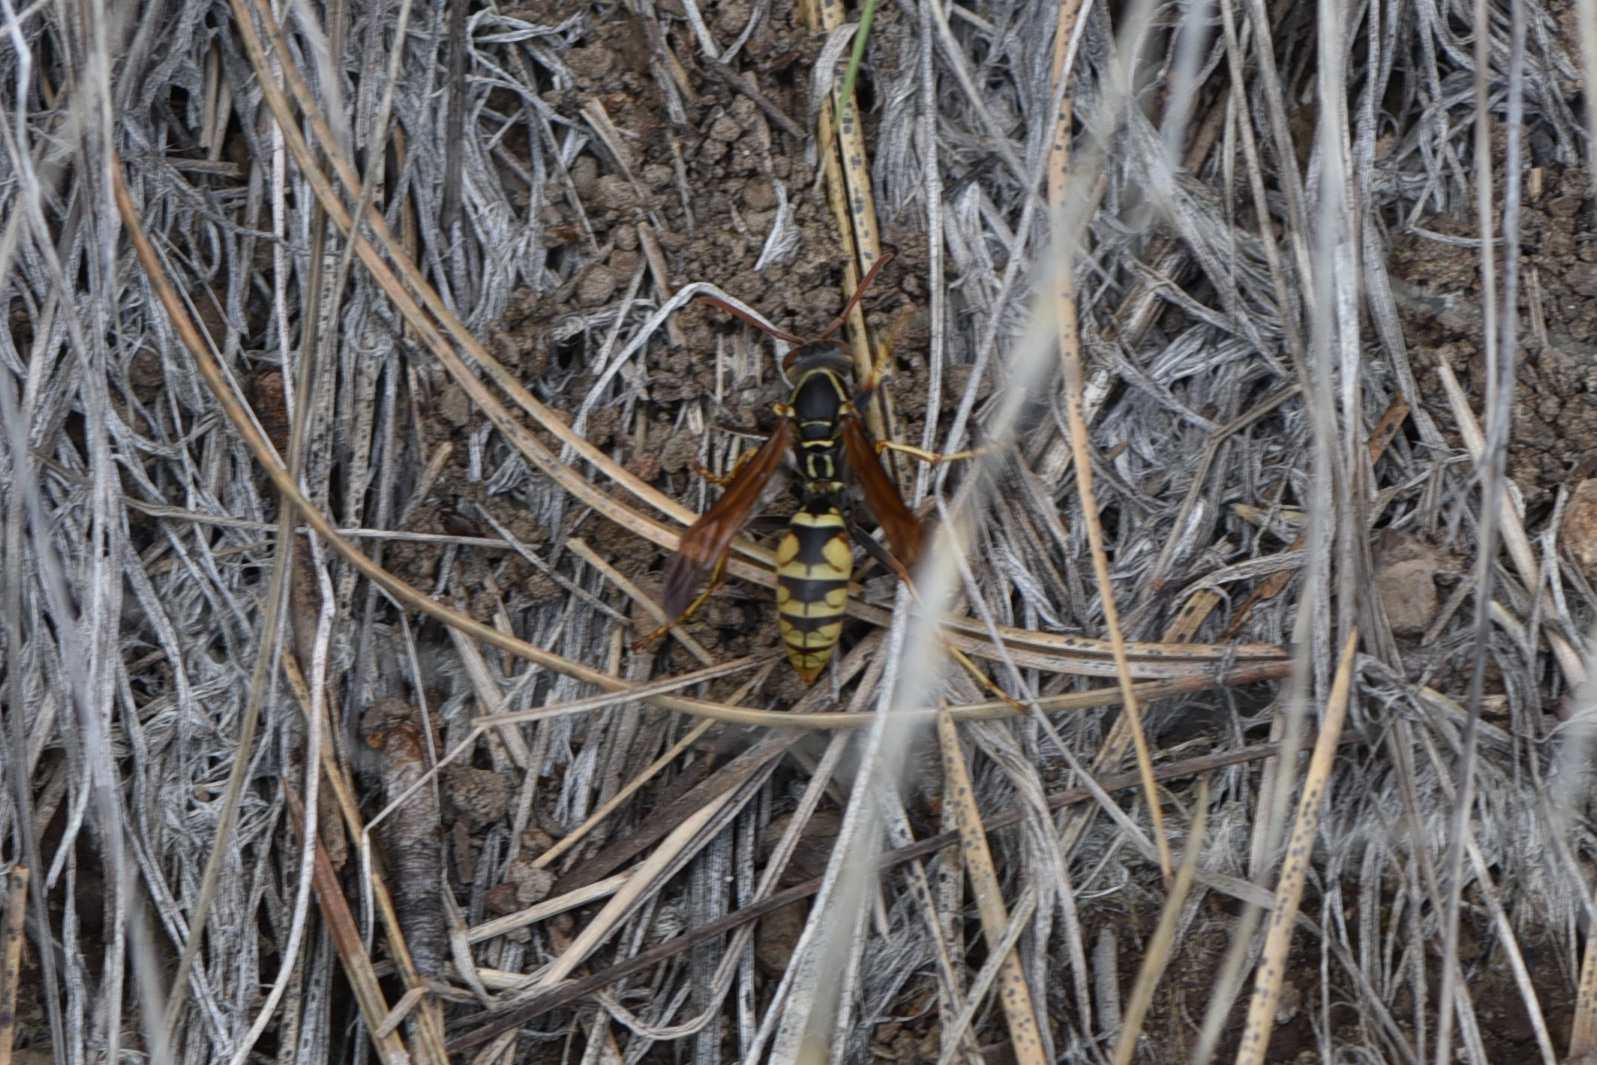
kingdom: Animalia
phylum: Arthropoda
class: Insecta
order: Hymenoptera
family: Eumenidae
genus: Polistes
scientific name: Polistes aurifer
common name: Paper wasp
